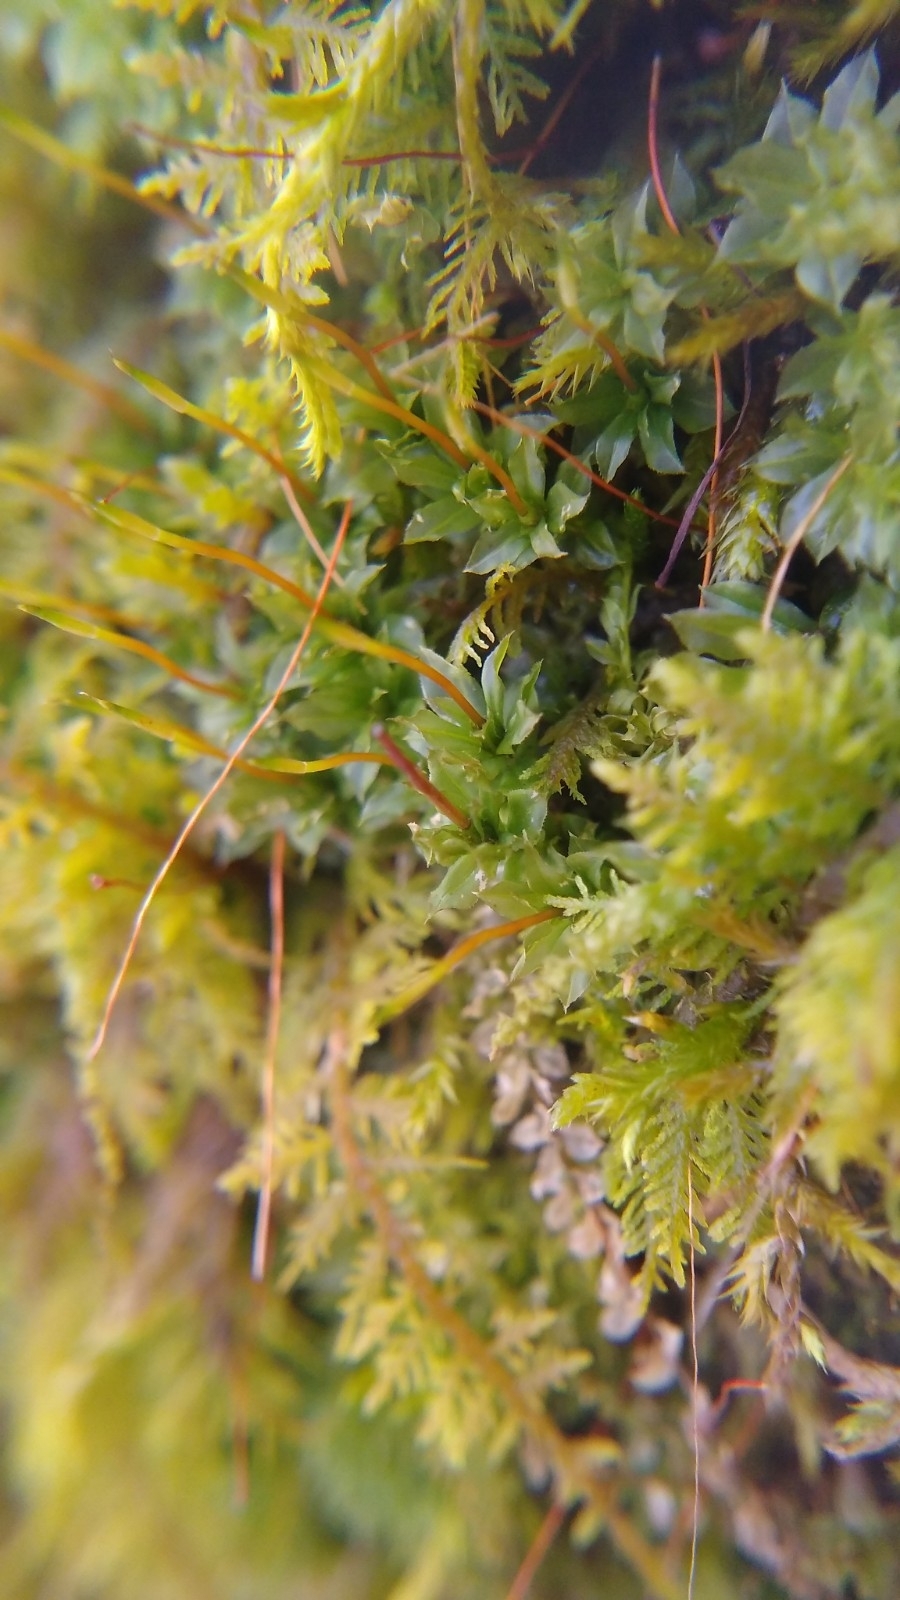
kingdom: Plantae
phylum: Bryophyta
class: Bryopsida
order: Bryales
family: Mniaceae
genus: Plagiomnium
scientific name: Plagiomnium cuspidatum
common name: Woodsy leafy moss
